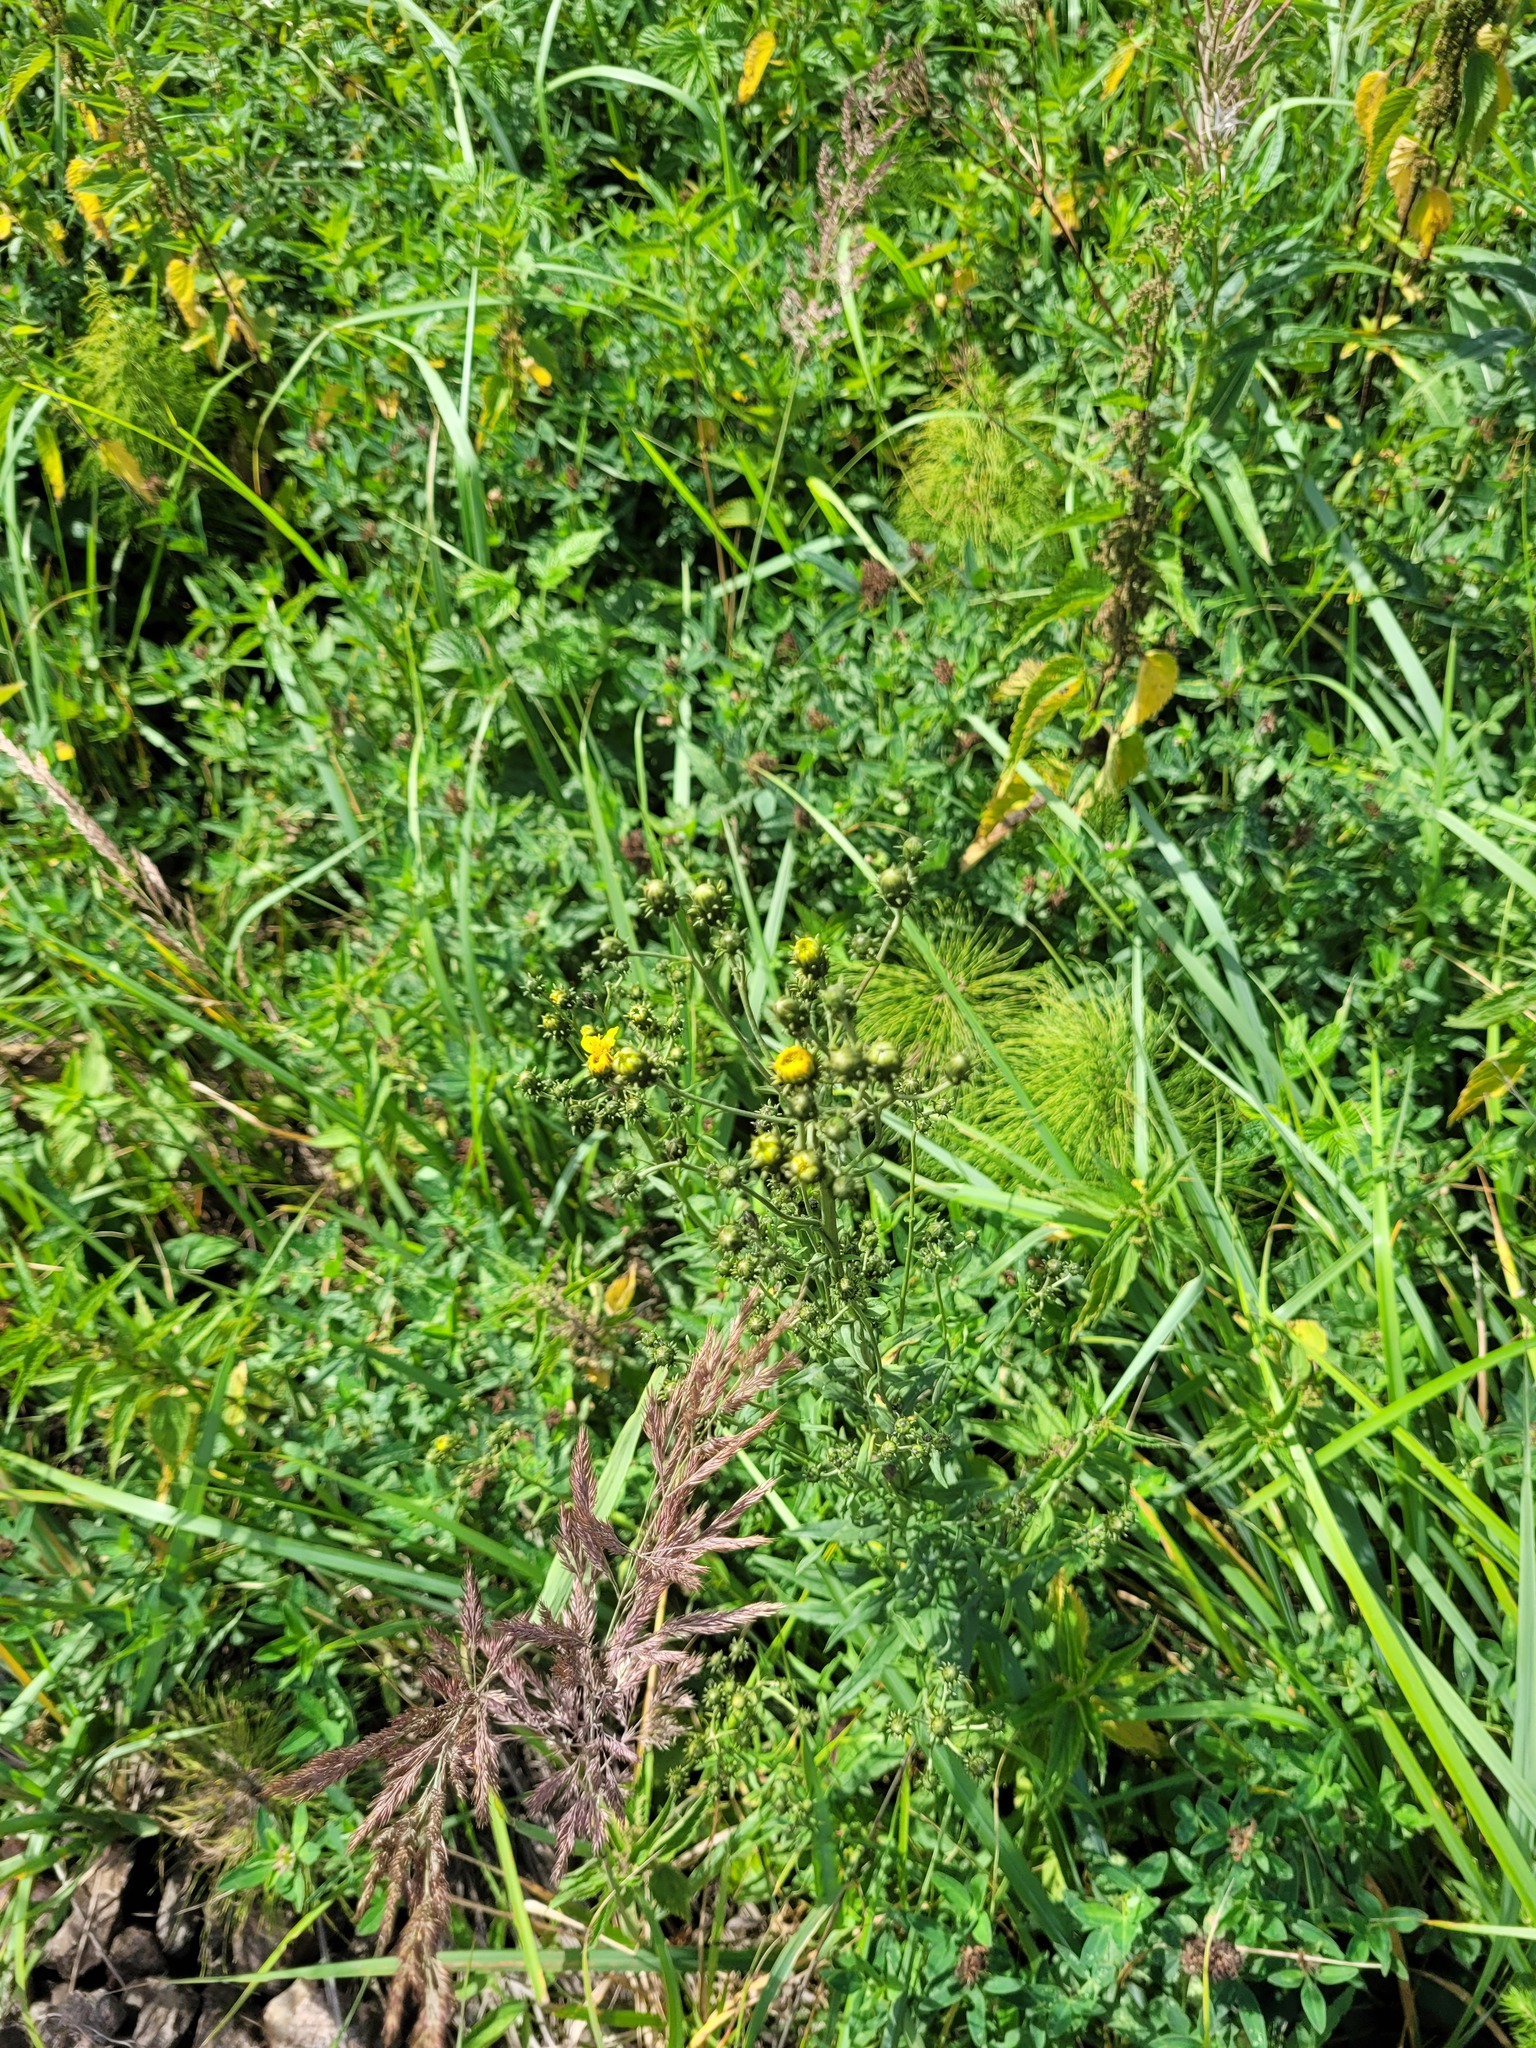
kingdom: Plantae
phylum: Tracheophyta
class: Magnoliopsida
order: Asterales
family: Asteraceae
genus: Hieracium
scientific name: Hieracium umbellatum
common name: Northern hawkweed
